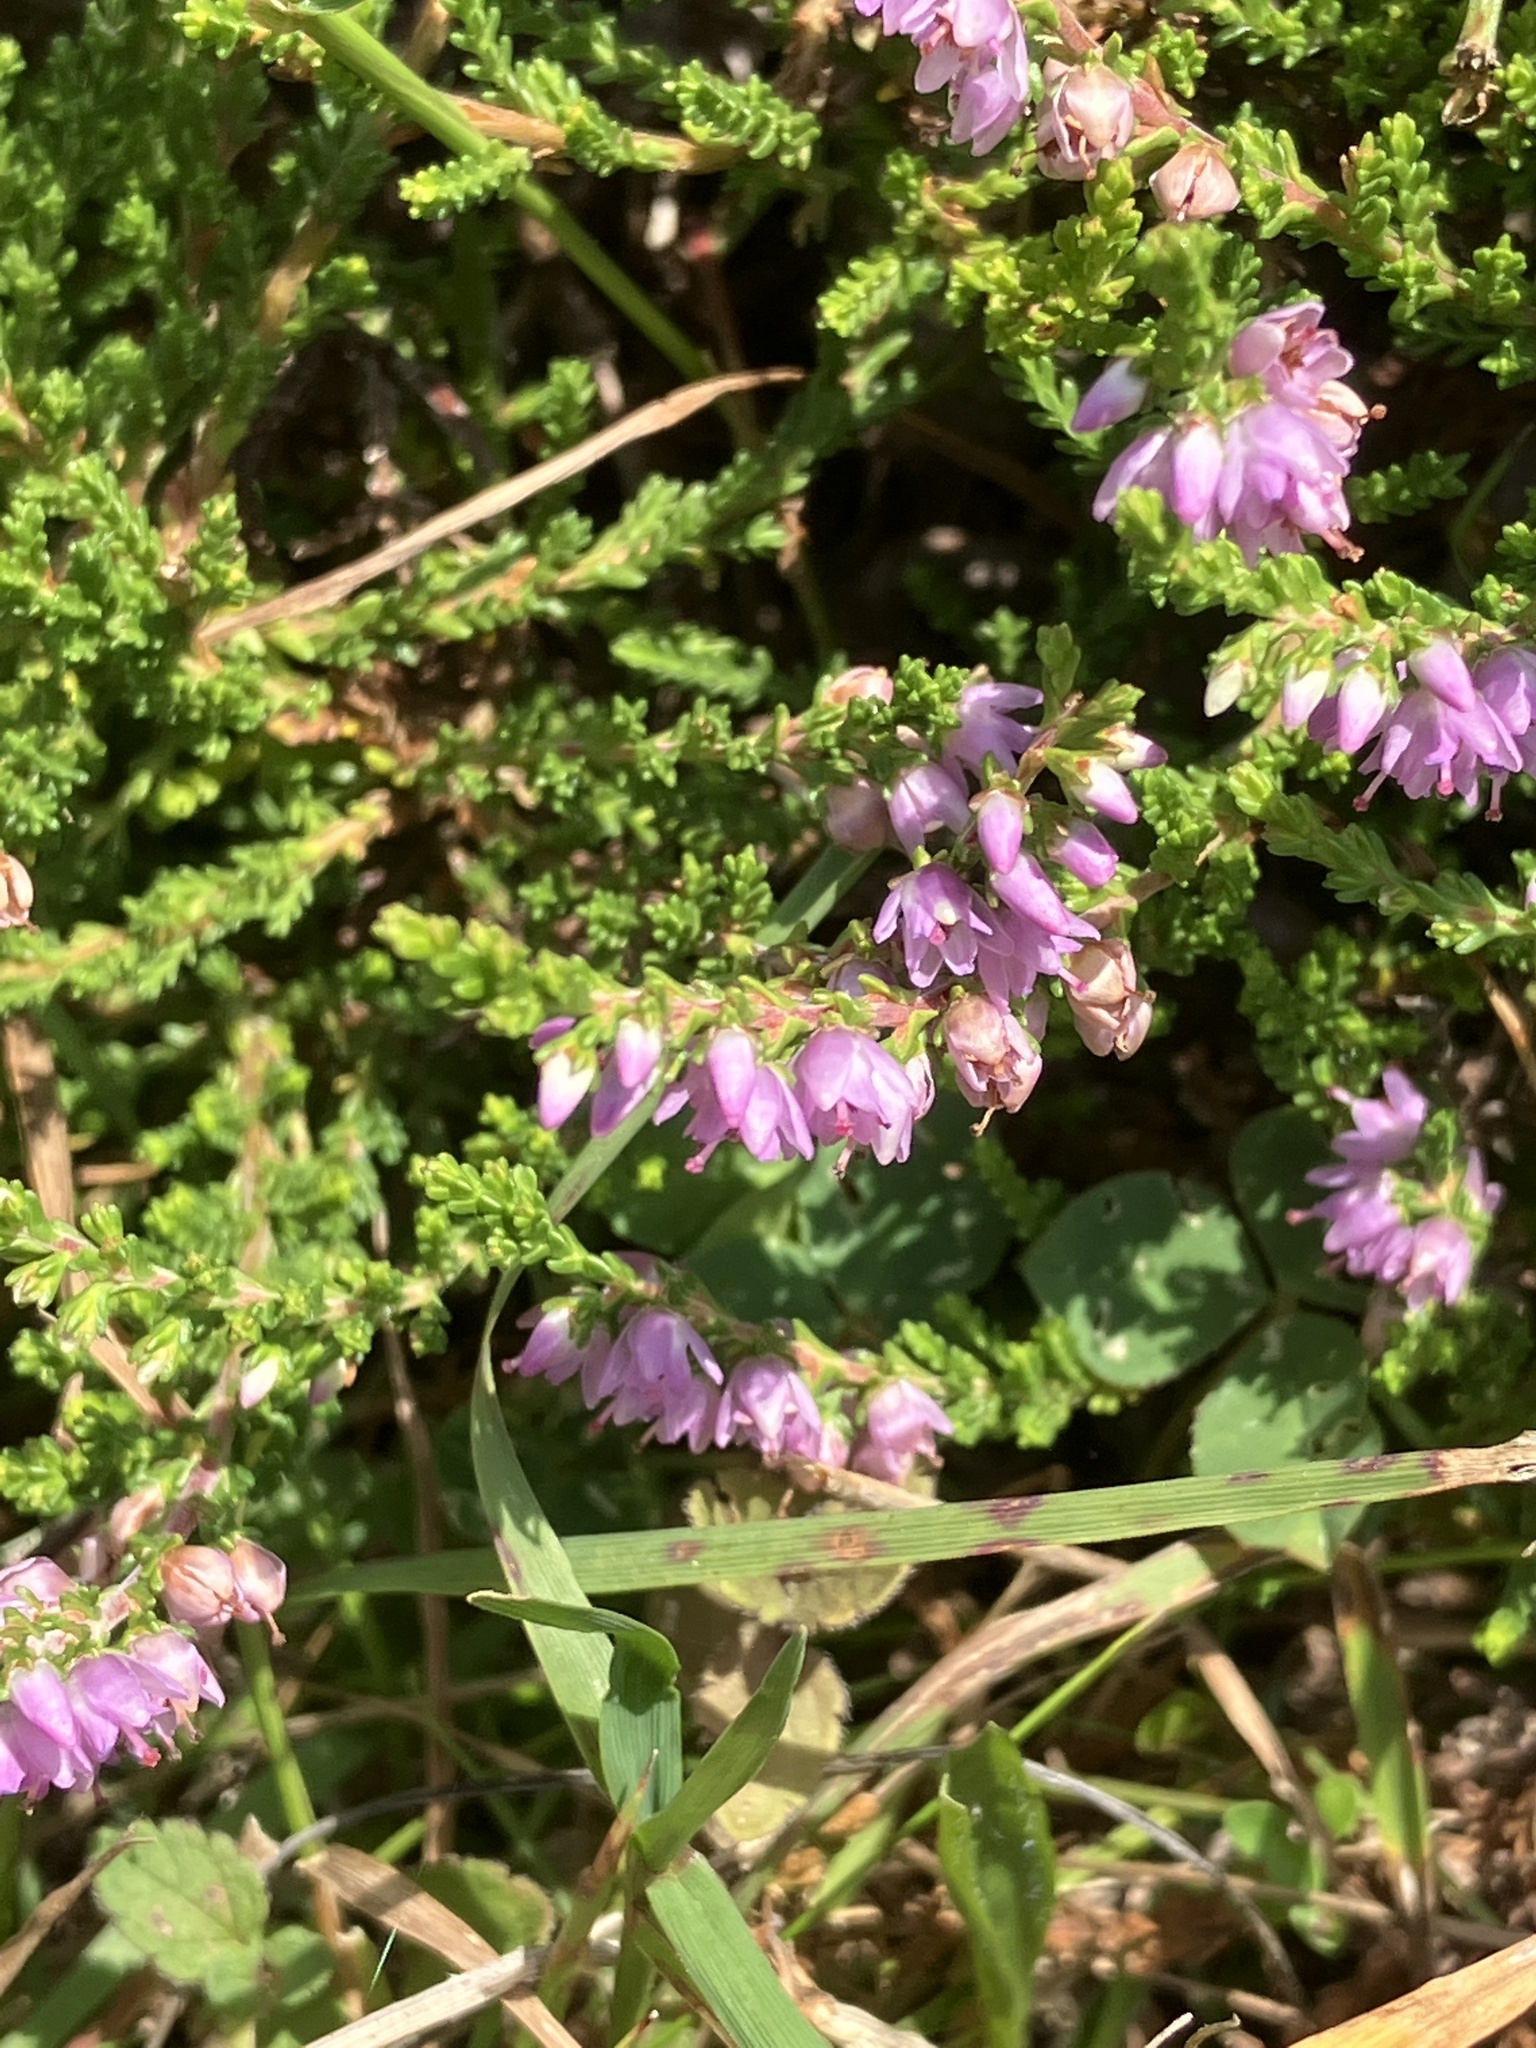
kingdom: Plantae
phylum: Tracheophyta
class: Magnoliopsida
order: Ericales
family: Ericaceae
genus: Calluna
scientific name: Calluna vulgaris
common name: Heather
